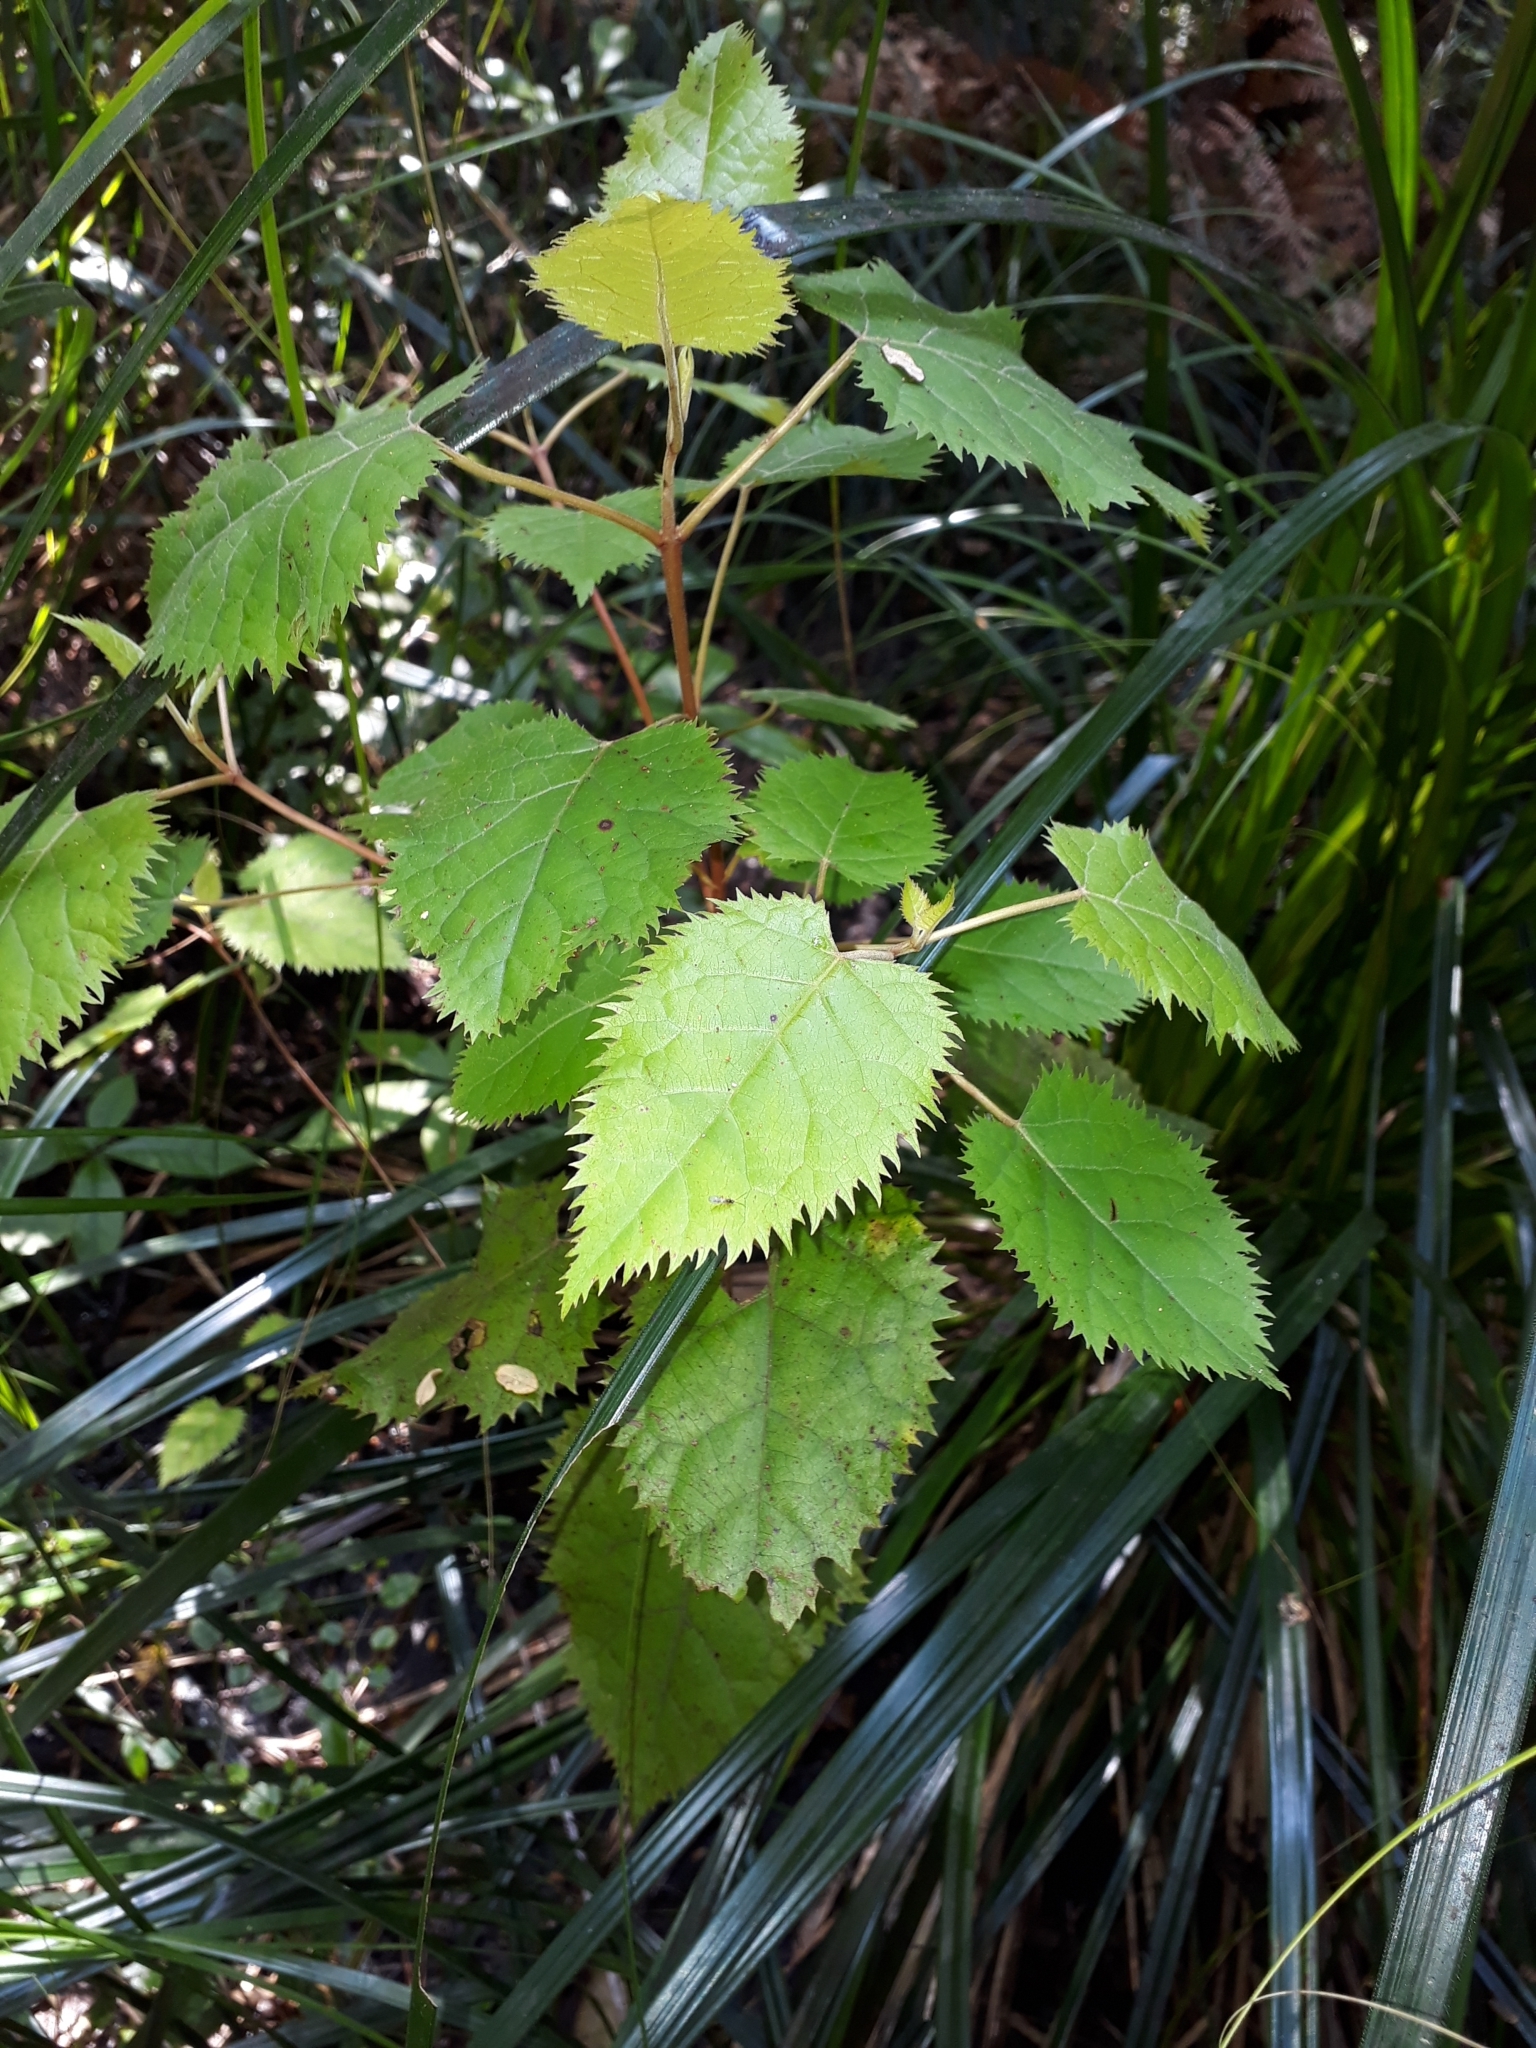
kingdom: Plantae
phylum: Tracheophyta
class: Magnoliopsida
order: Oxalidales
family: Elaeocarpaceae
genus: Aristotelia
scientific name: Aristotelia serrata
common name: New zealand wineberry
